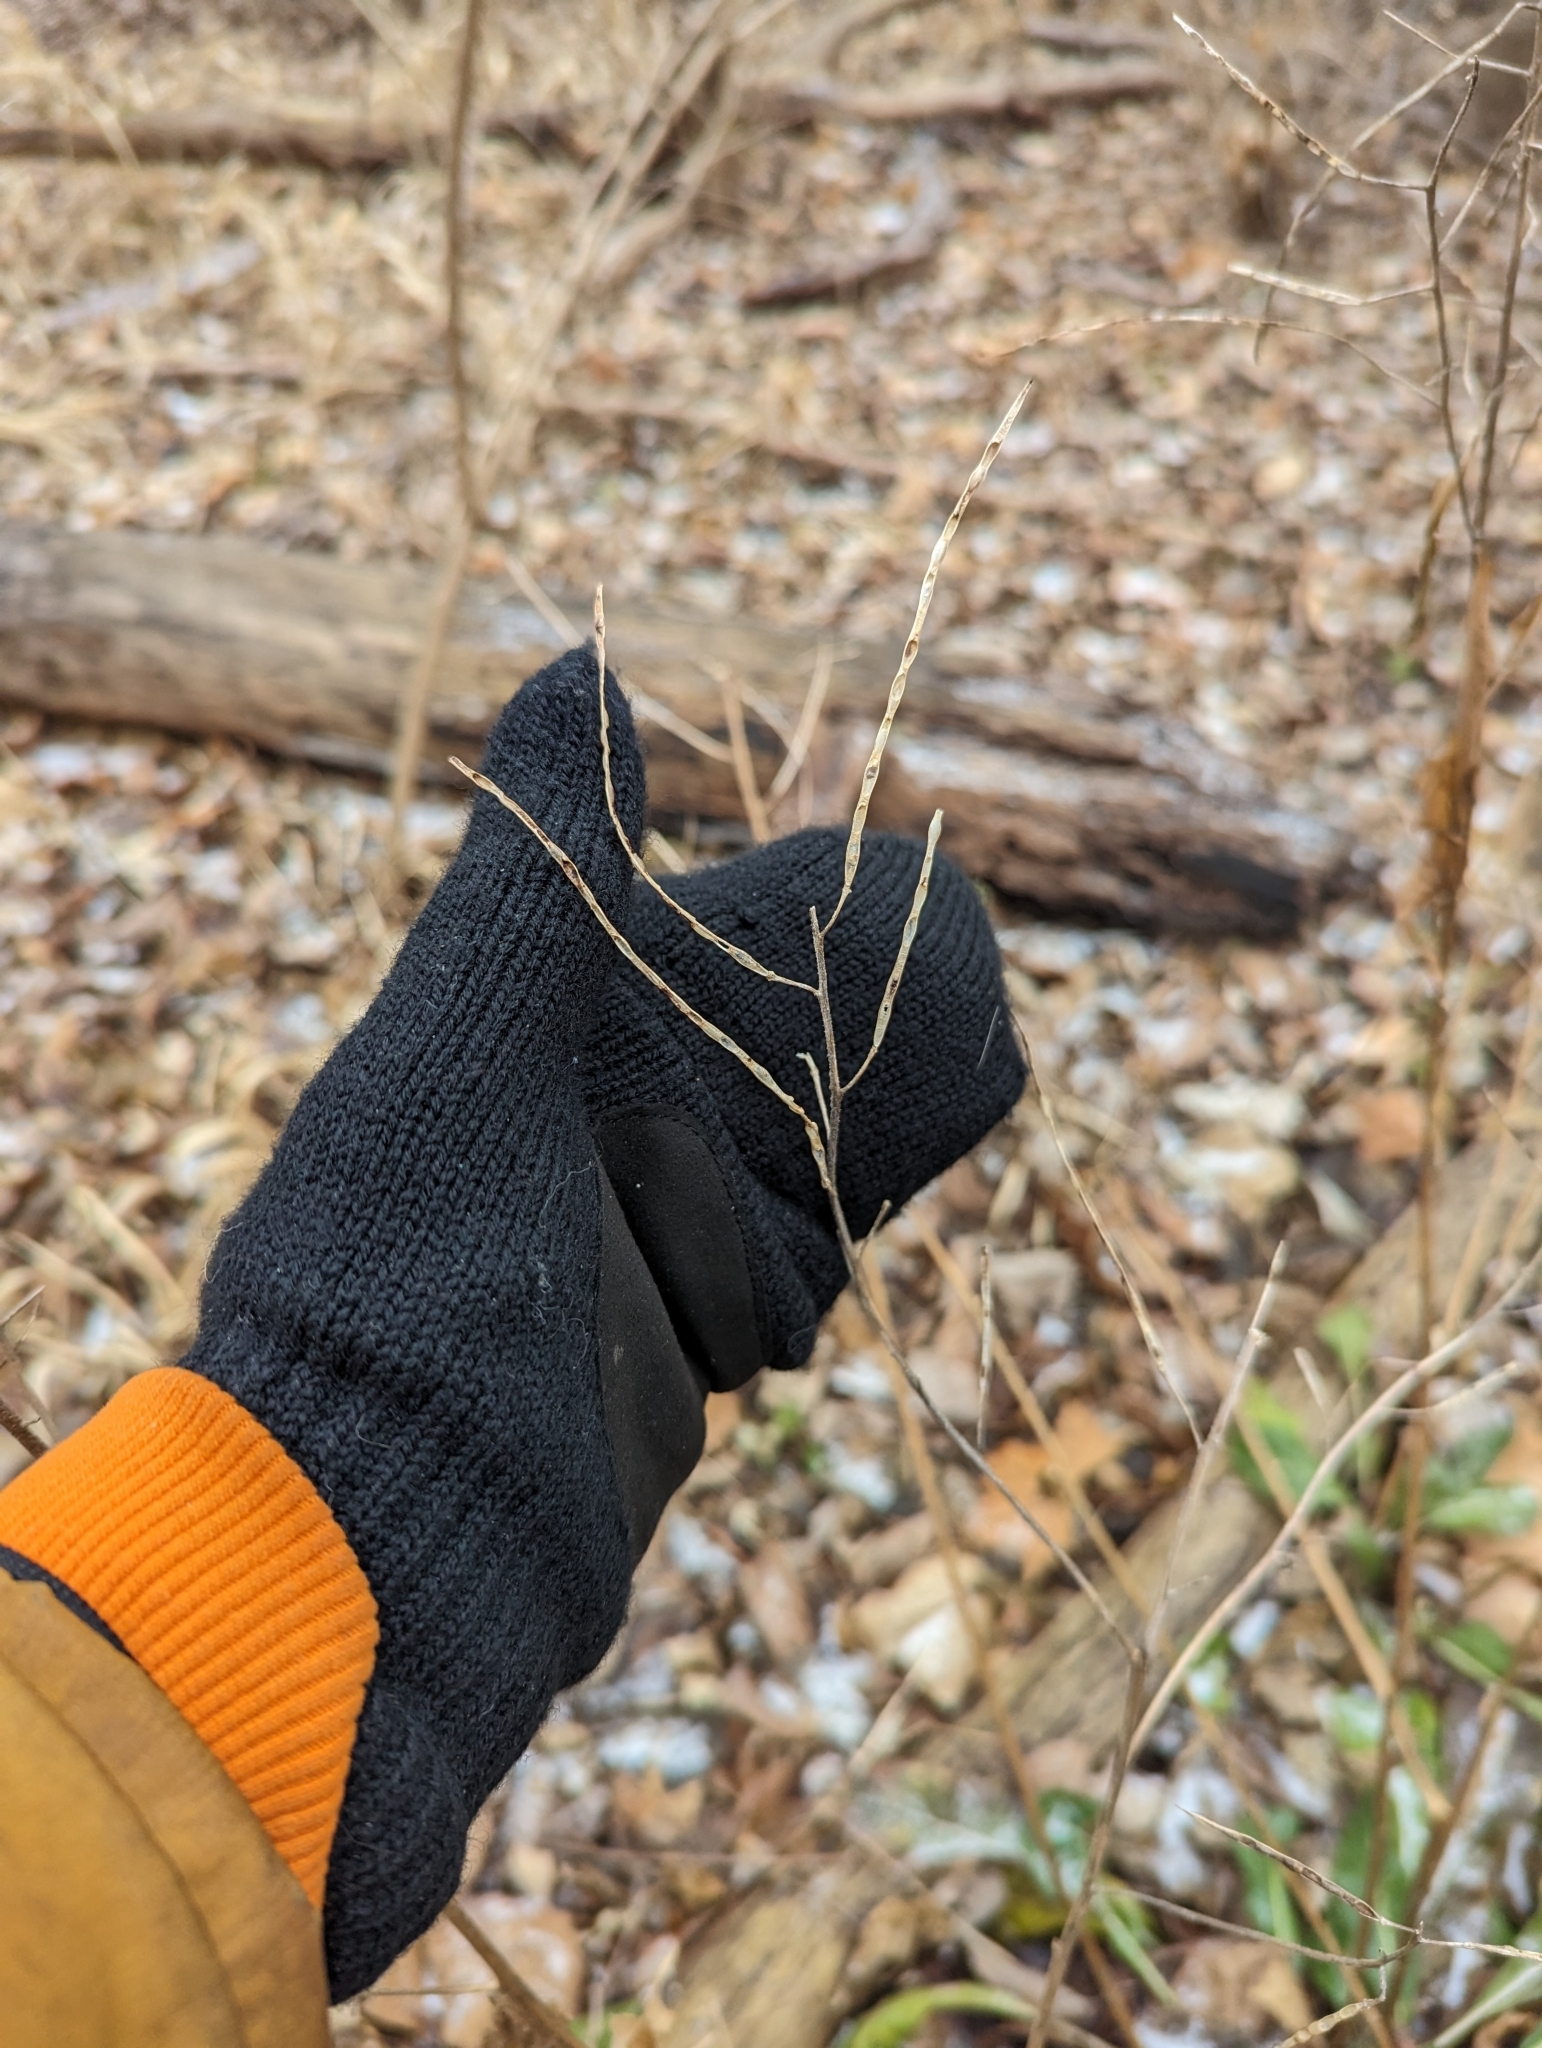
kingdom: Plantae
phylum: Tracheophyta
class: Magnoliopsida
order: Brassicales
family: Brassicaceae
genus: Hesperis
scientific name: Hesperis matronalis
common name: Dame's-violet
